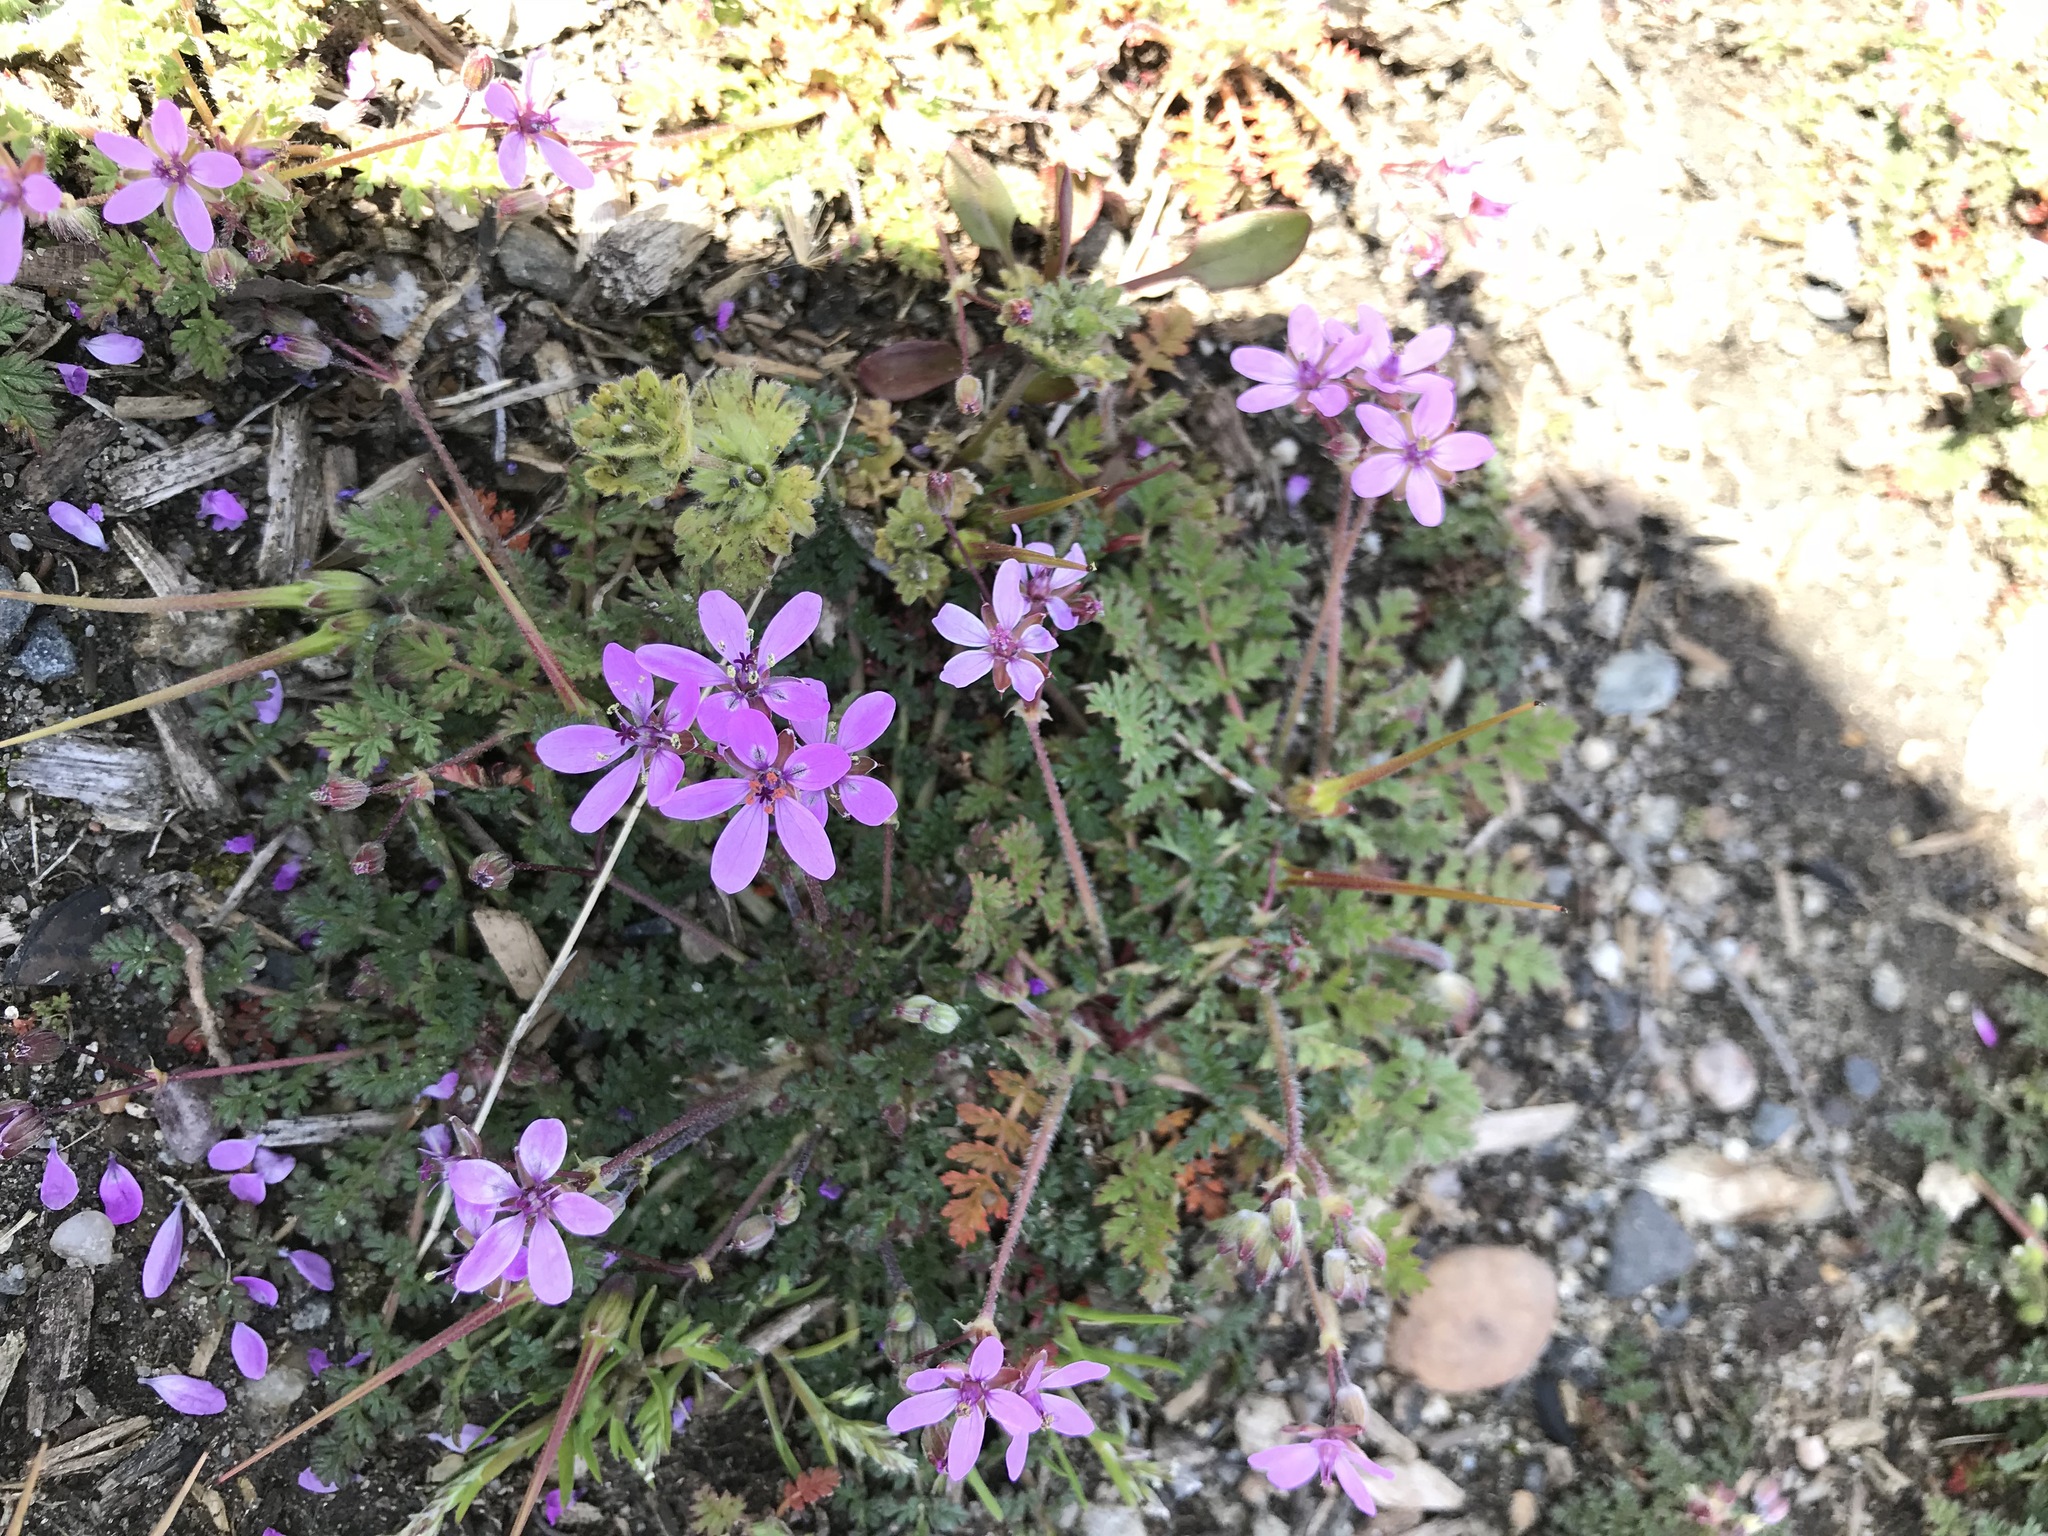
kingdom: Plantae
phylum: Tracheophyta
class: Magnoliopsida
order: Geraniales
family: Geraniaceae
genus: Erodium
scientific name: Erodium cicutarium
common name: Common stork's-bill
